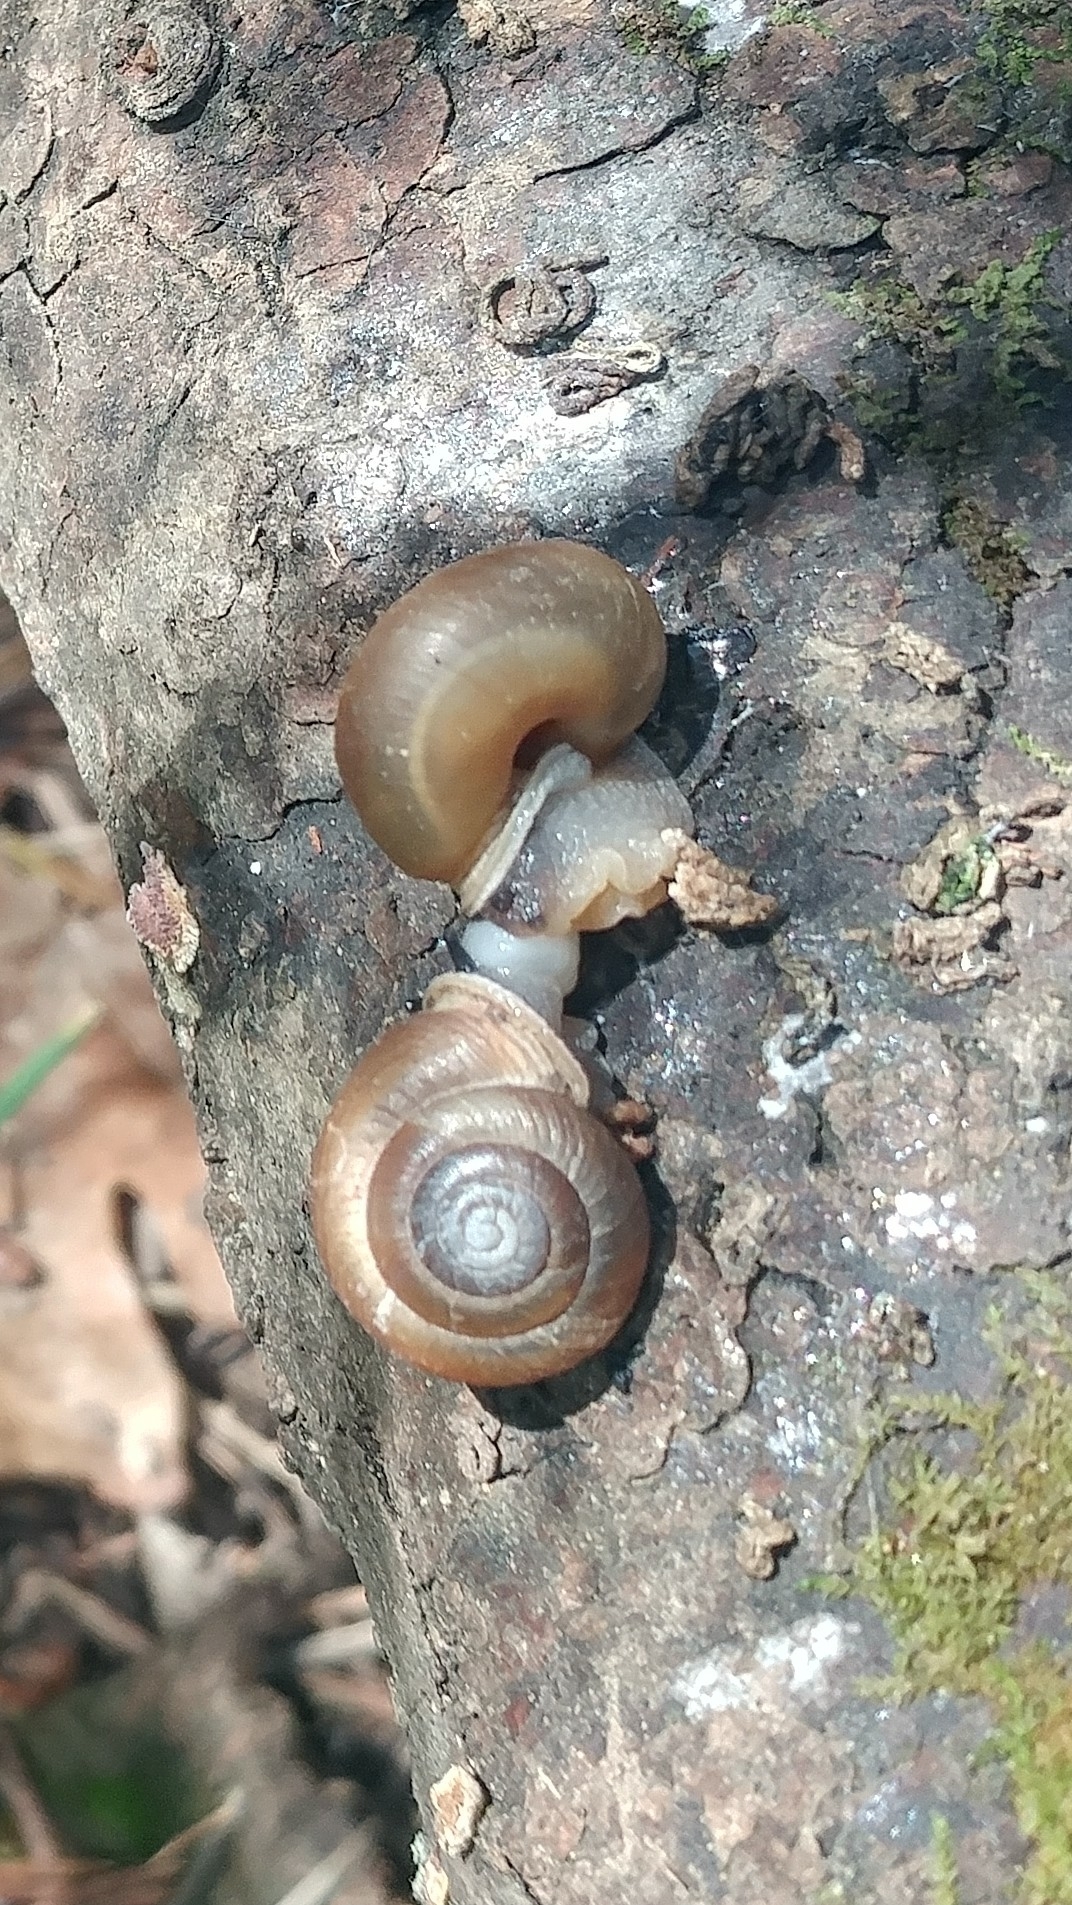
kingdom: Animalia
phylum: Mollusca
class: Gastropoda
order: Stylommatophora
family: Polygyridae
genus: Ashmunella
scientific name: Ashmunella rhyssa
